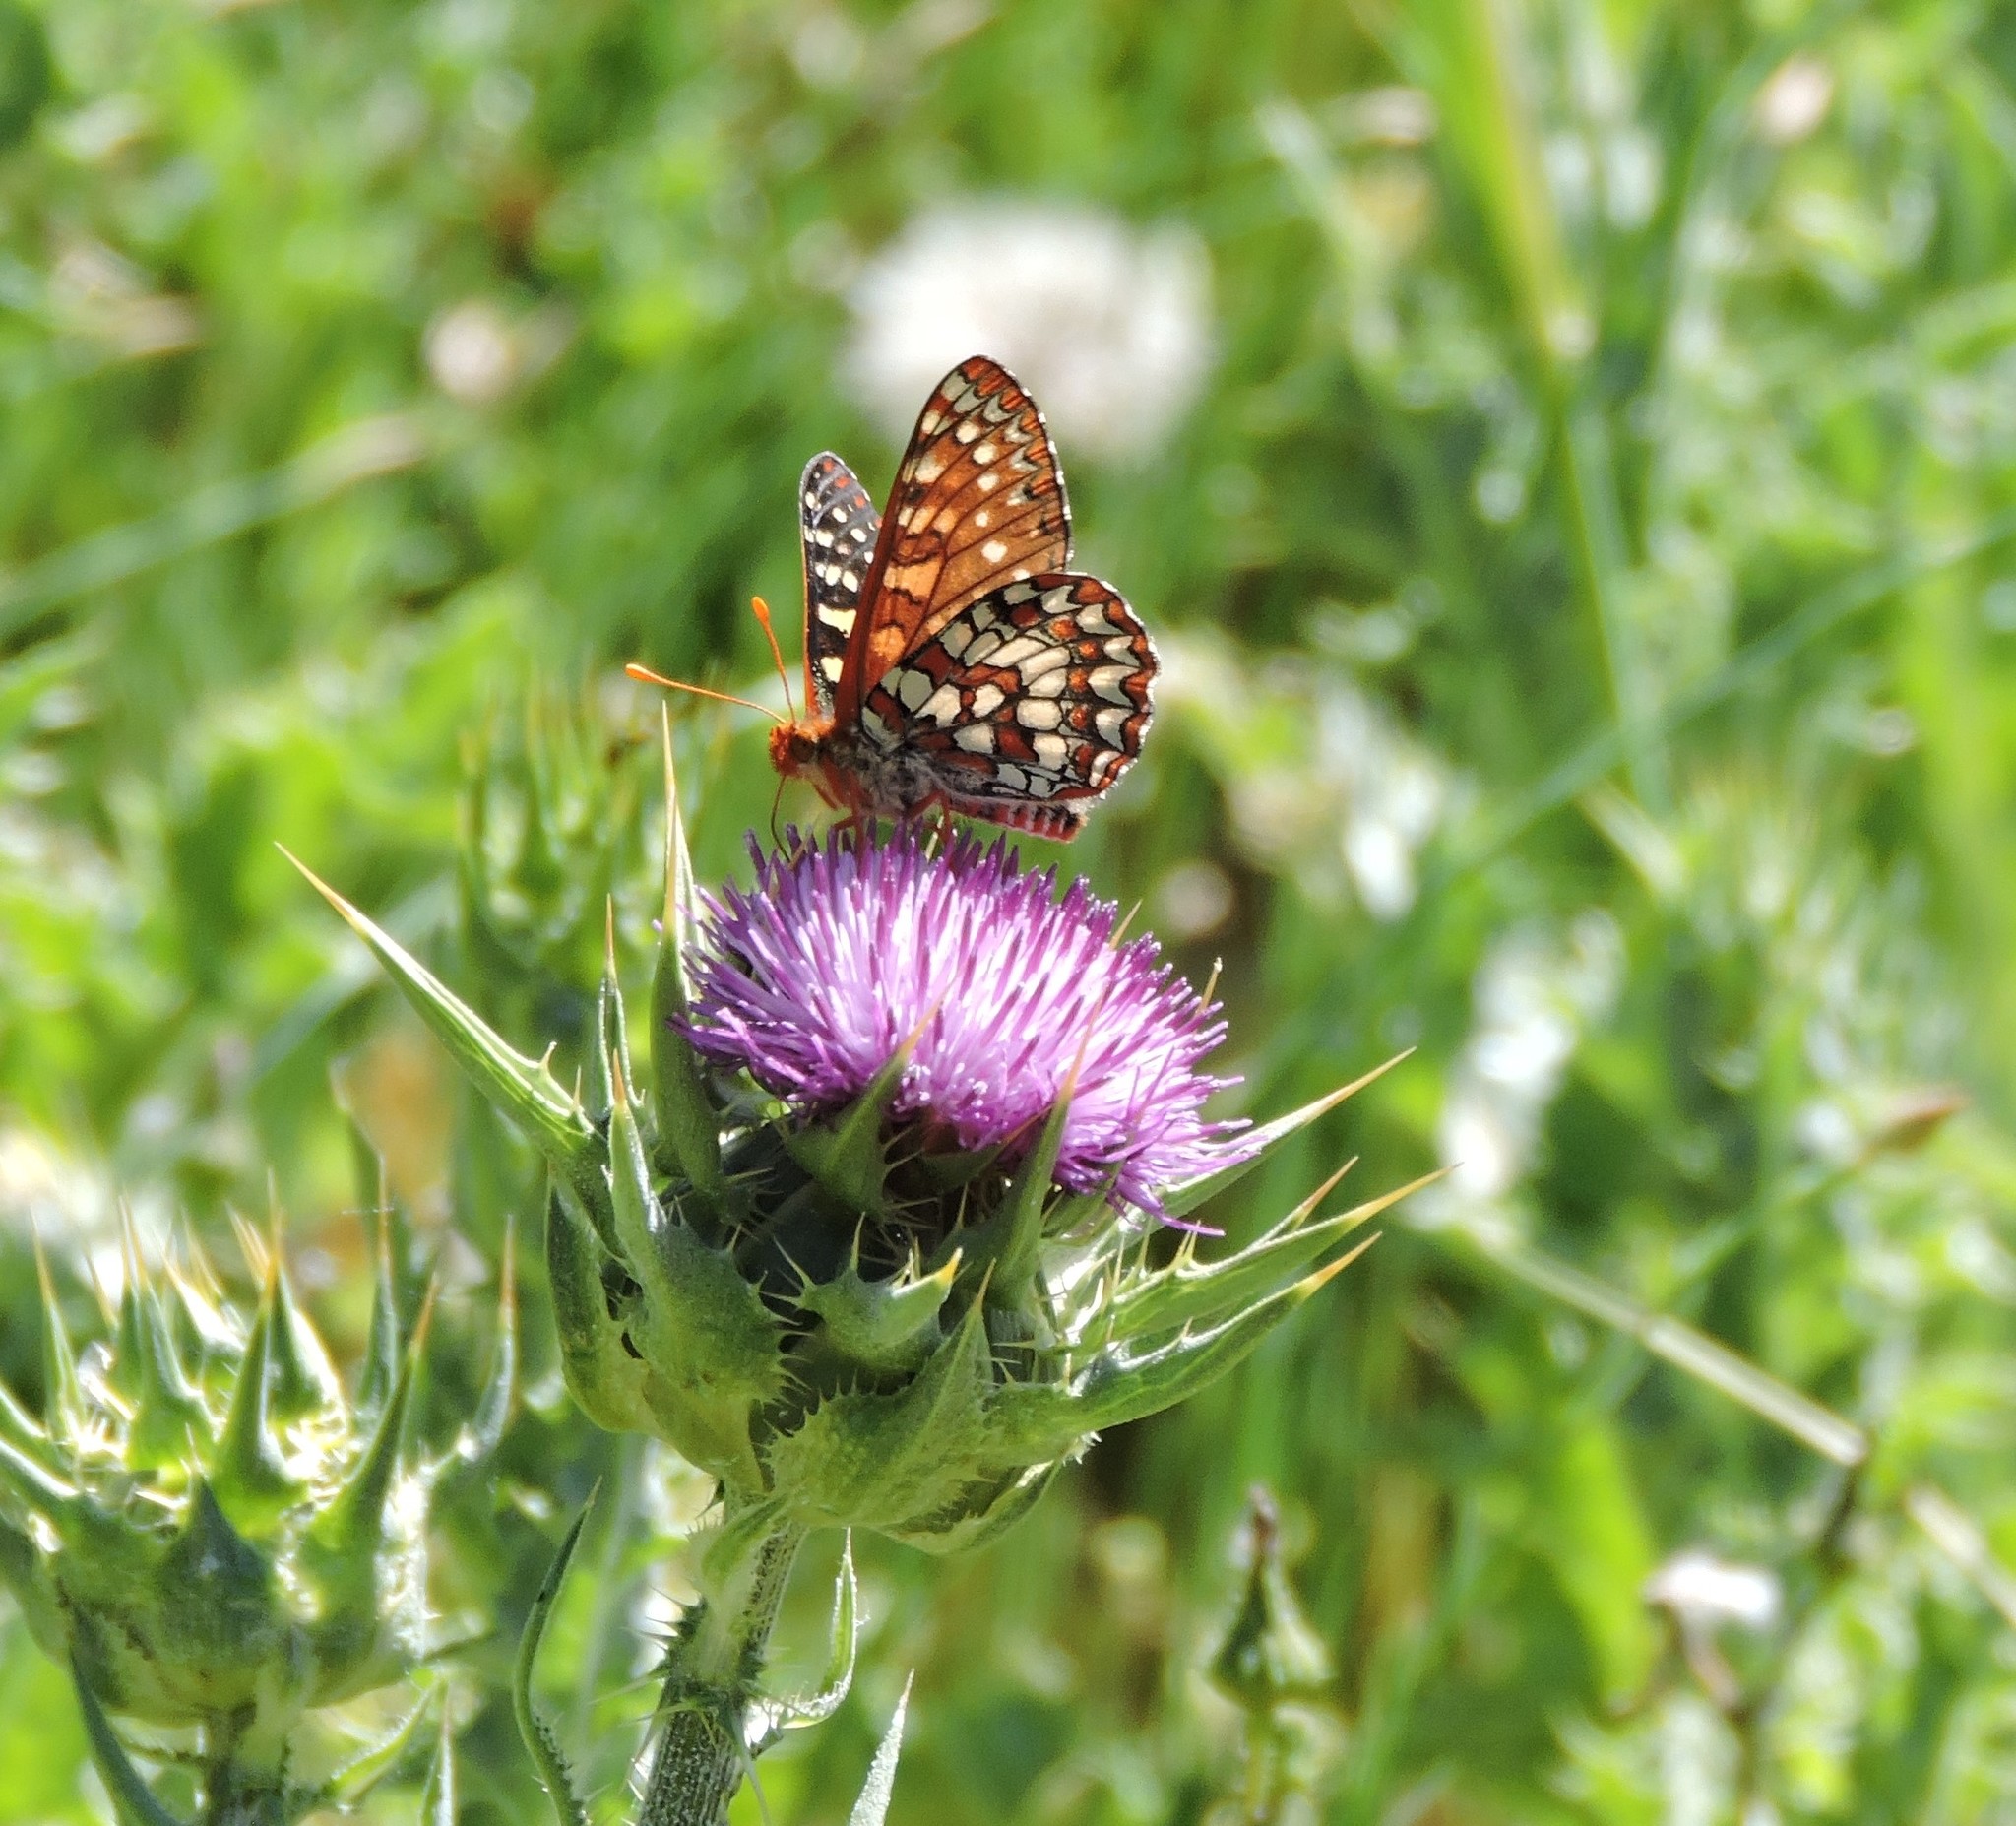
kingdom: Animalia
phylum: Arthropoda
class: Insecta
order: Lepidoptera
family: Nymphalidae
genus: Occidryas
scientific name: Occidryas chalcedona
